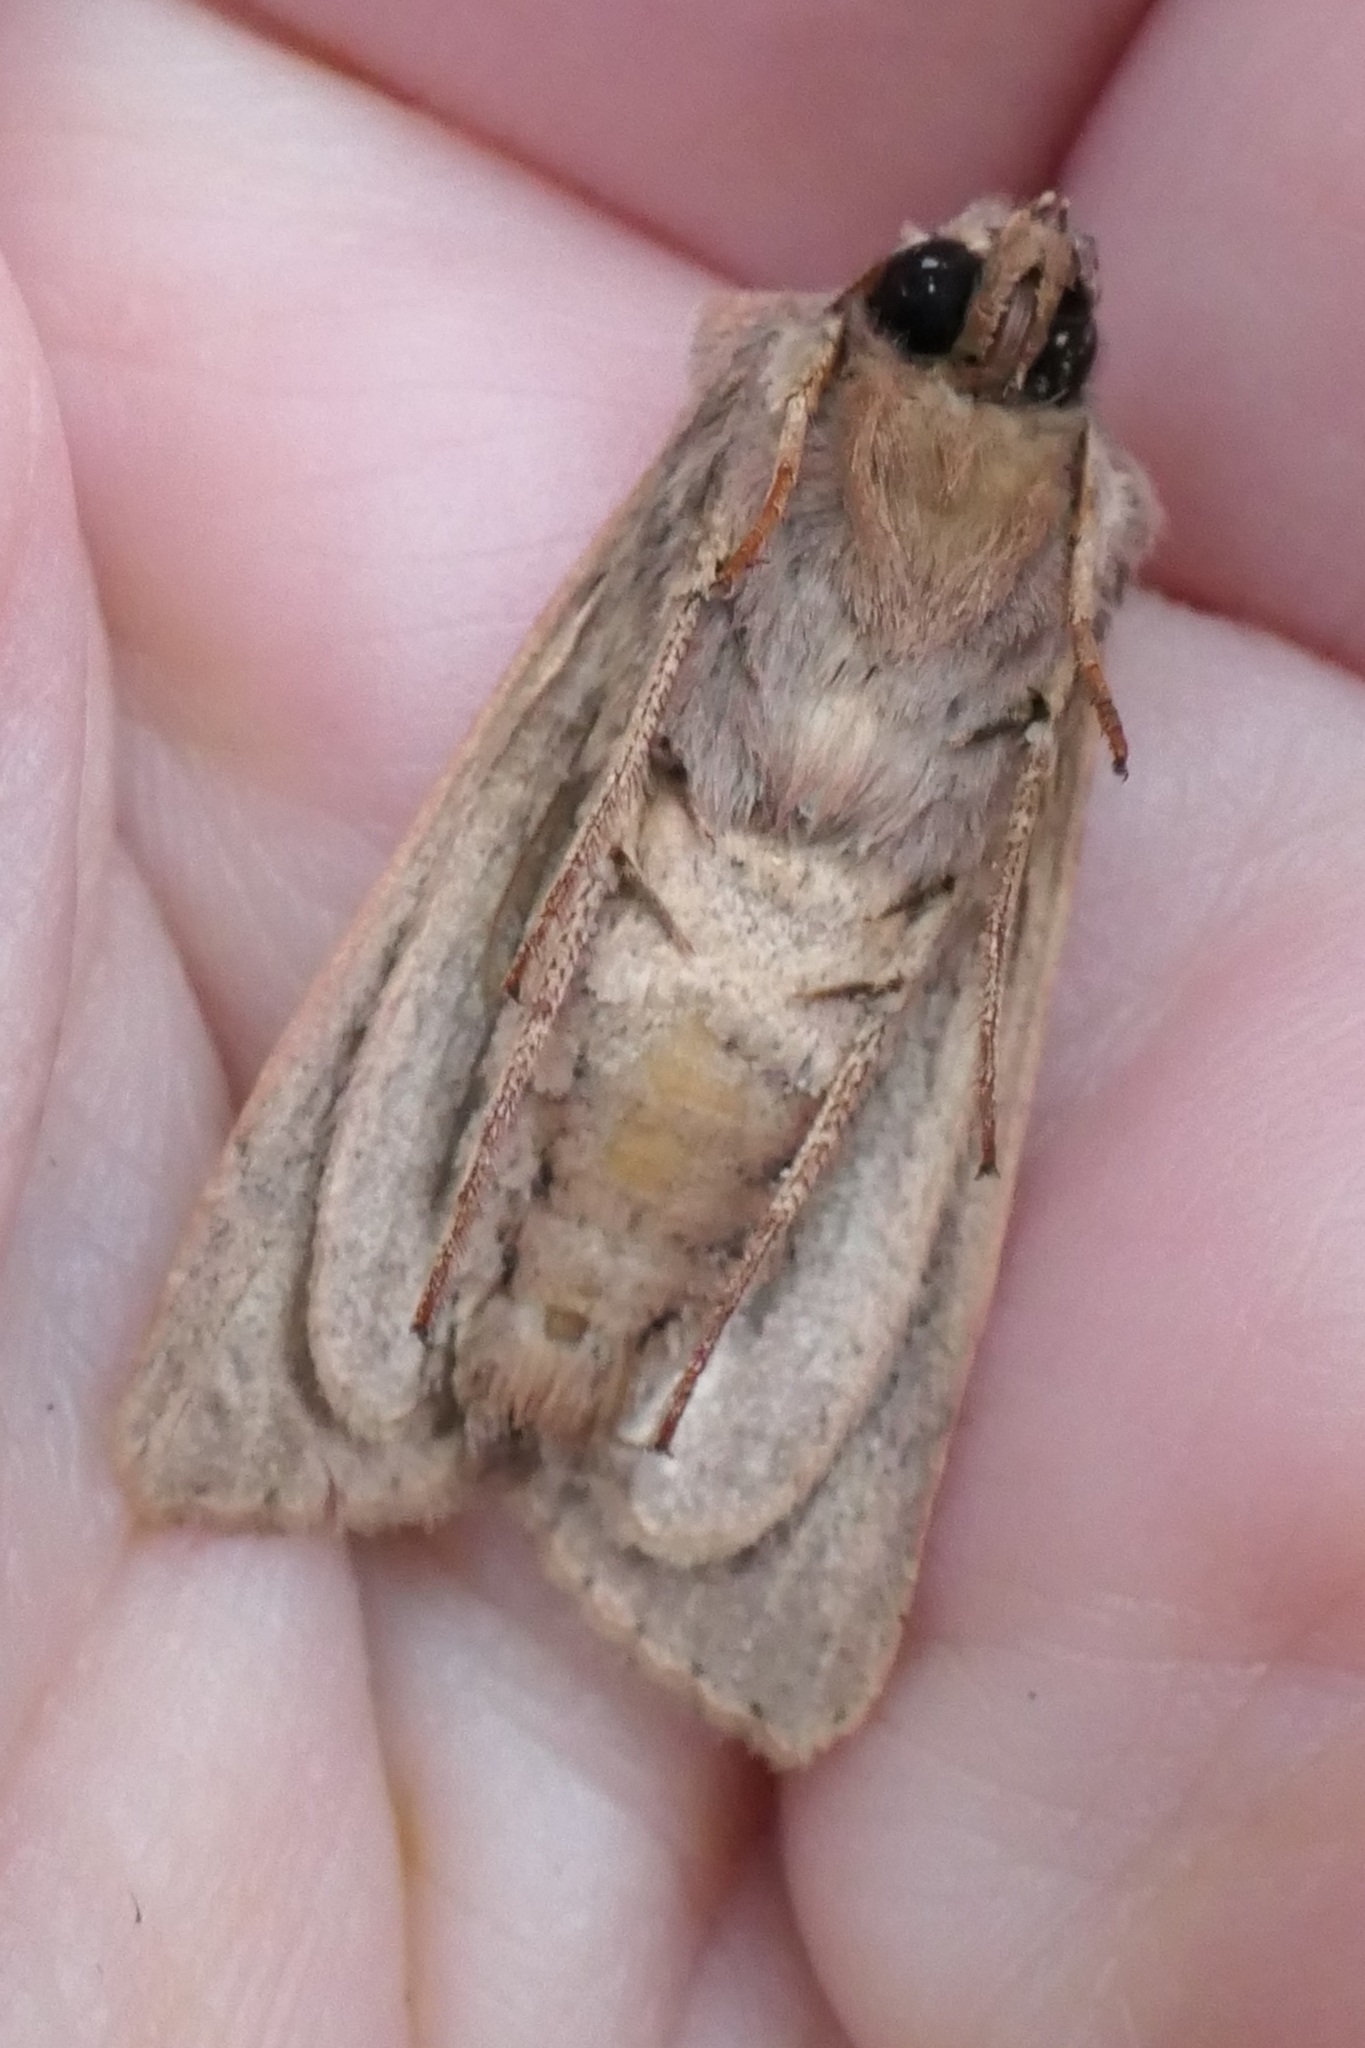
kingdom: Animalia
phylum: Arthropoda
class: Insecta
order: Lepidoptera
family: Noctuidae
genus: Ichneutica
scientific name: Ichneutica atristriga
